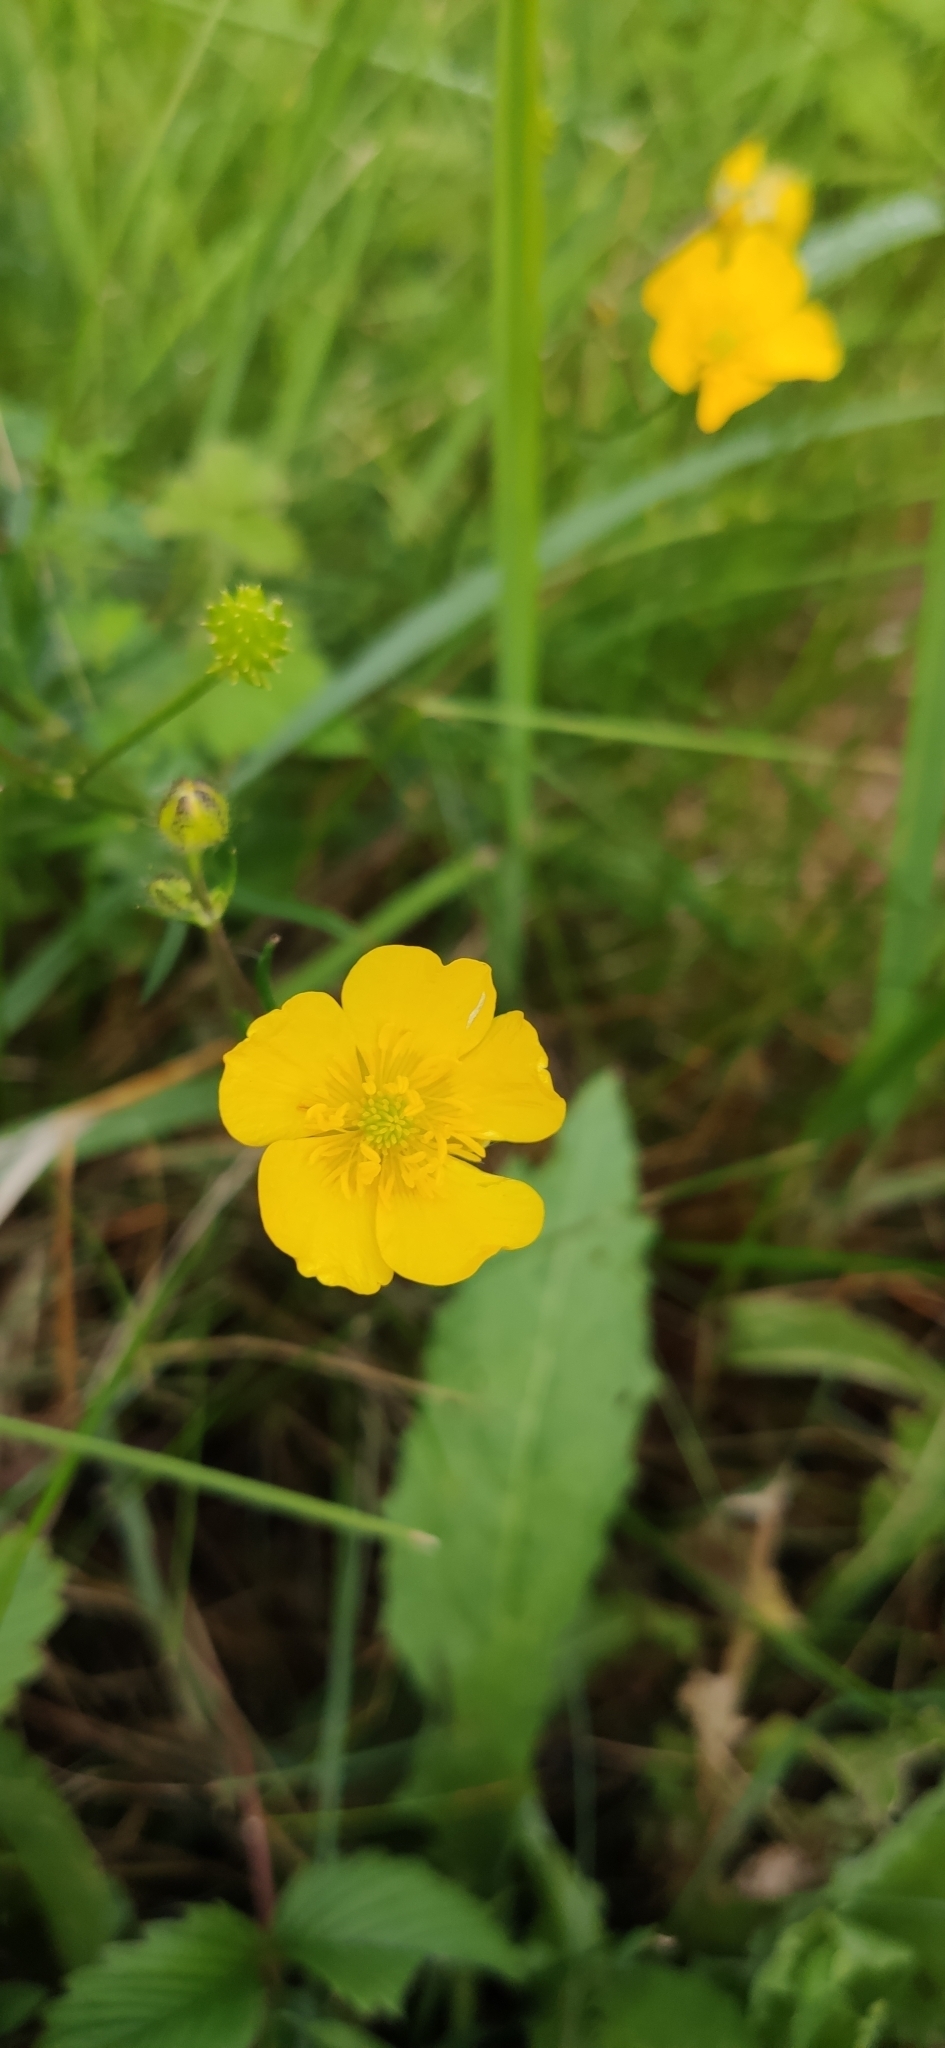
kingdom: Plantae
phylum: Tracheophyta
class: Magnoliopsida
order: Ranunculales
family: Ranunculaceae
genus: Ranunculus
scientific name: Ranunculus polyanthemos
